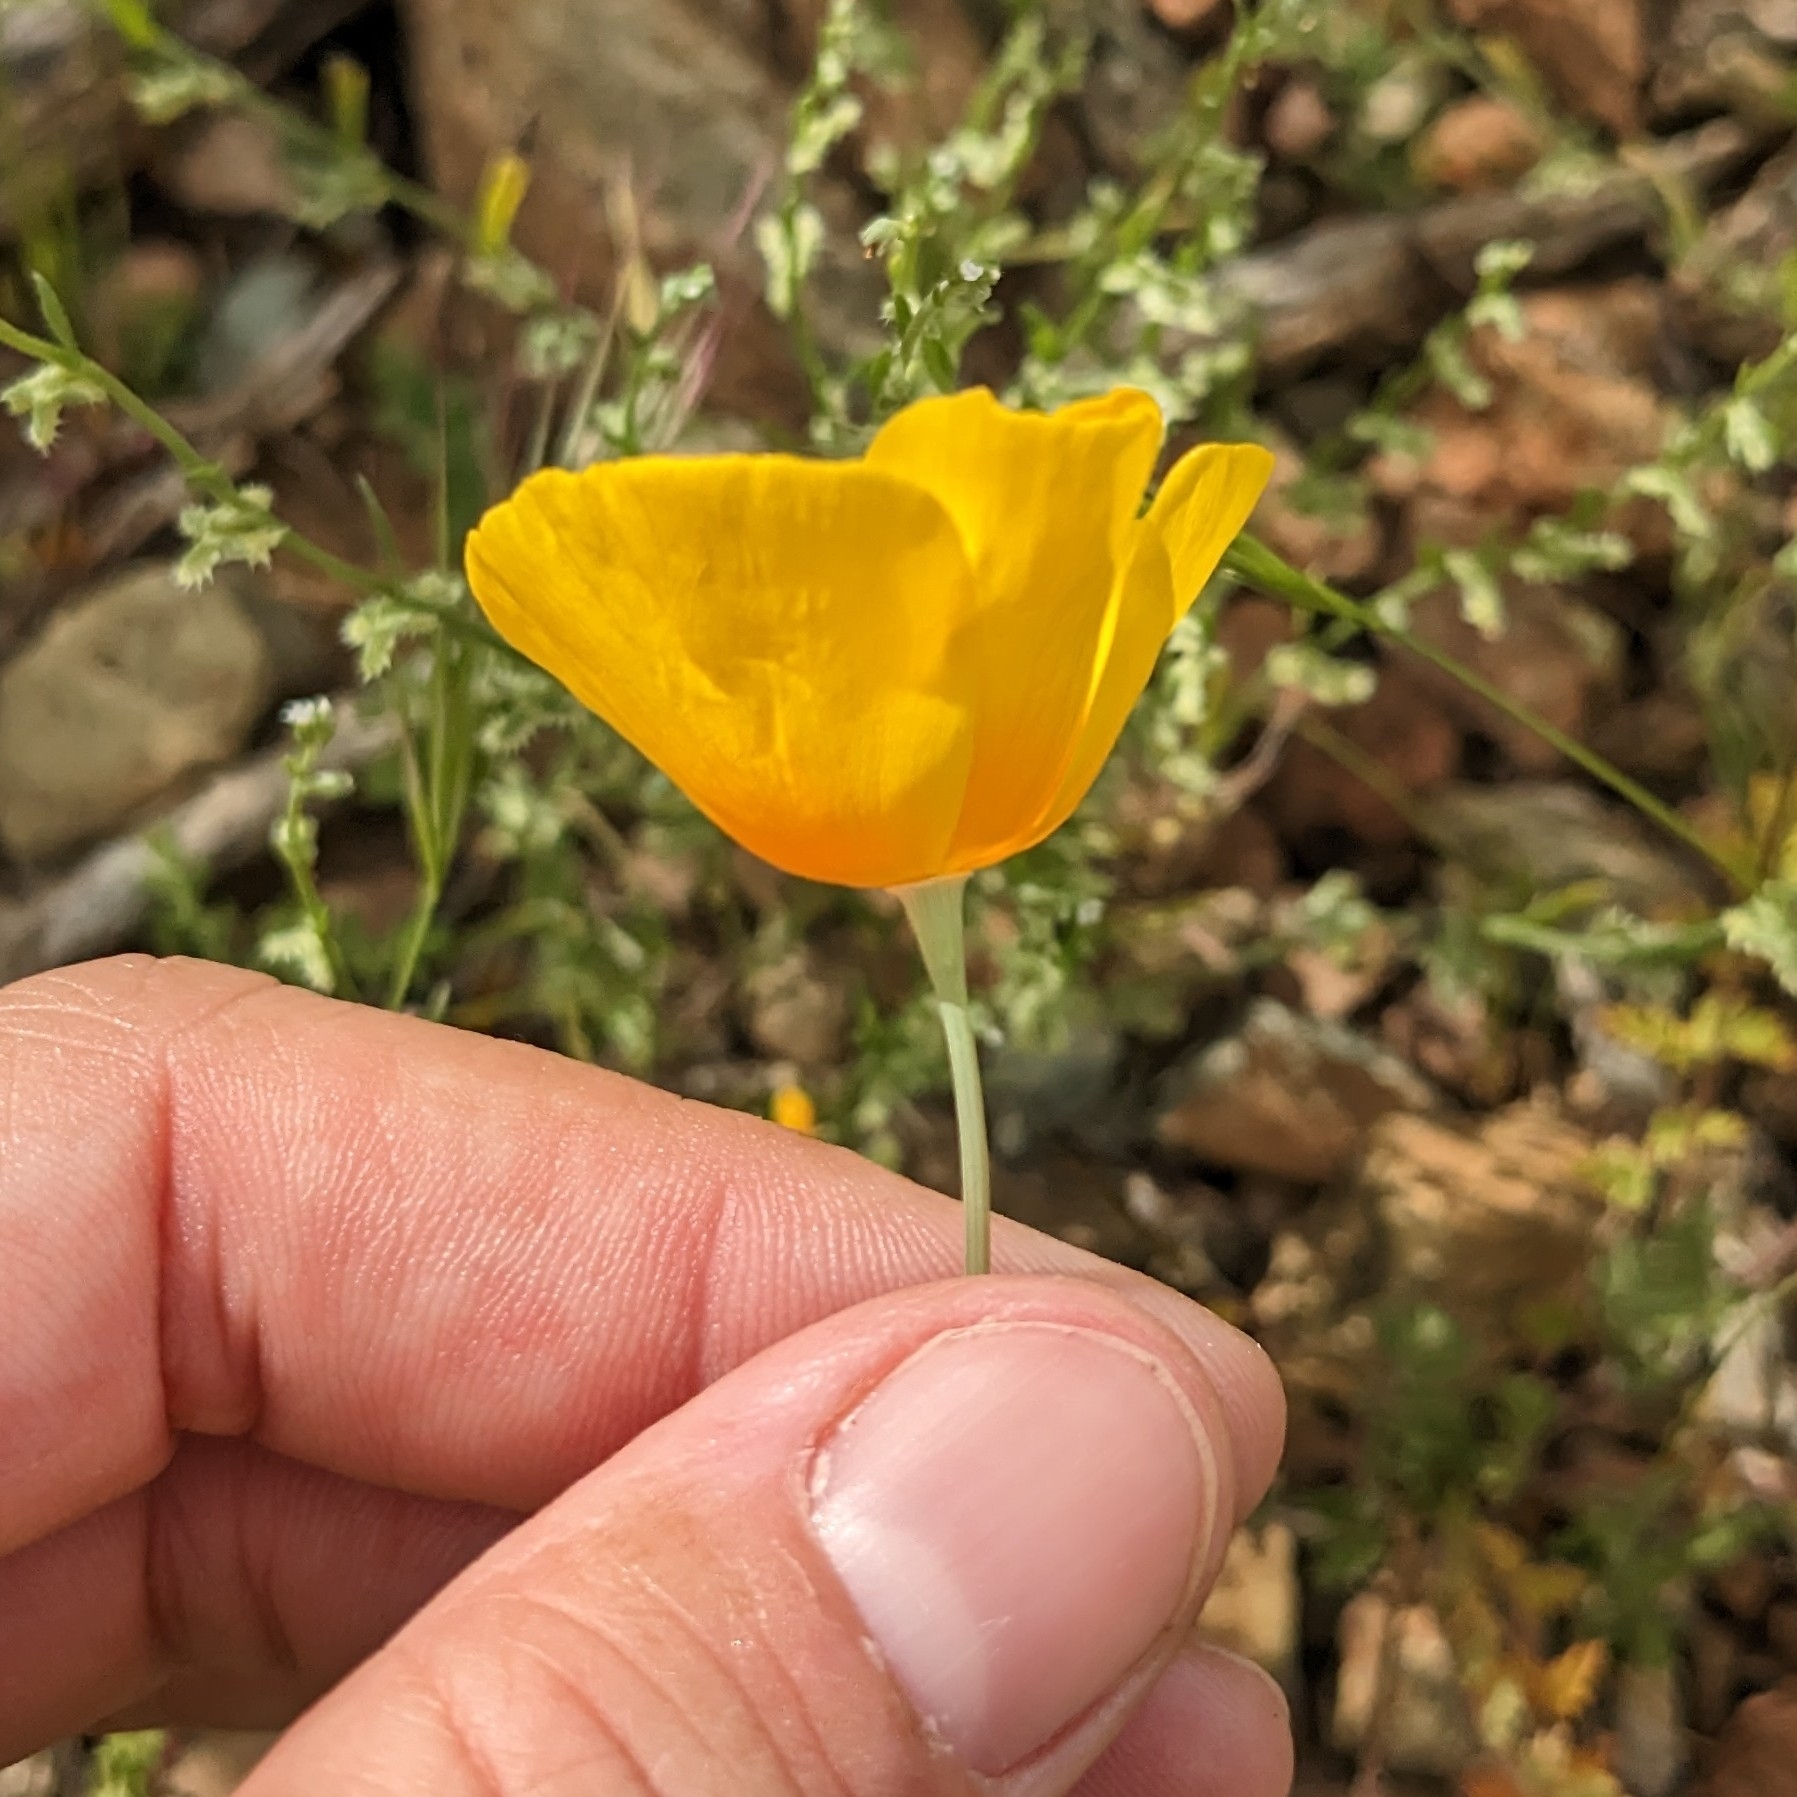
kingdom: Plantae
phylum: Tracheophyta
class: Magnoliopsida
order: Ranunculales
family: Papaveraceae
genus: Eschscholzia
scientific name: Eschscholzia californica
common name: California poppy
